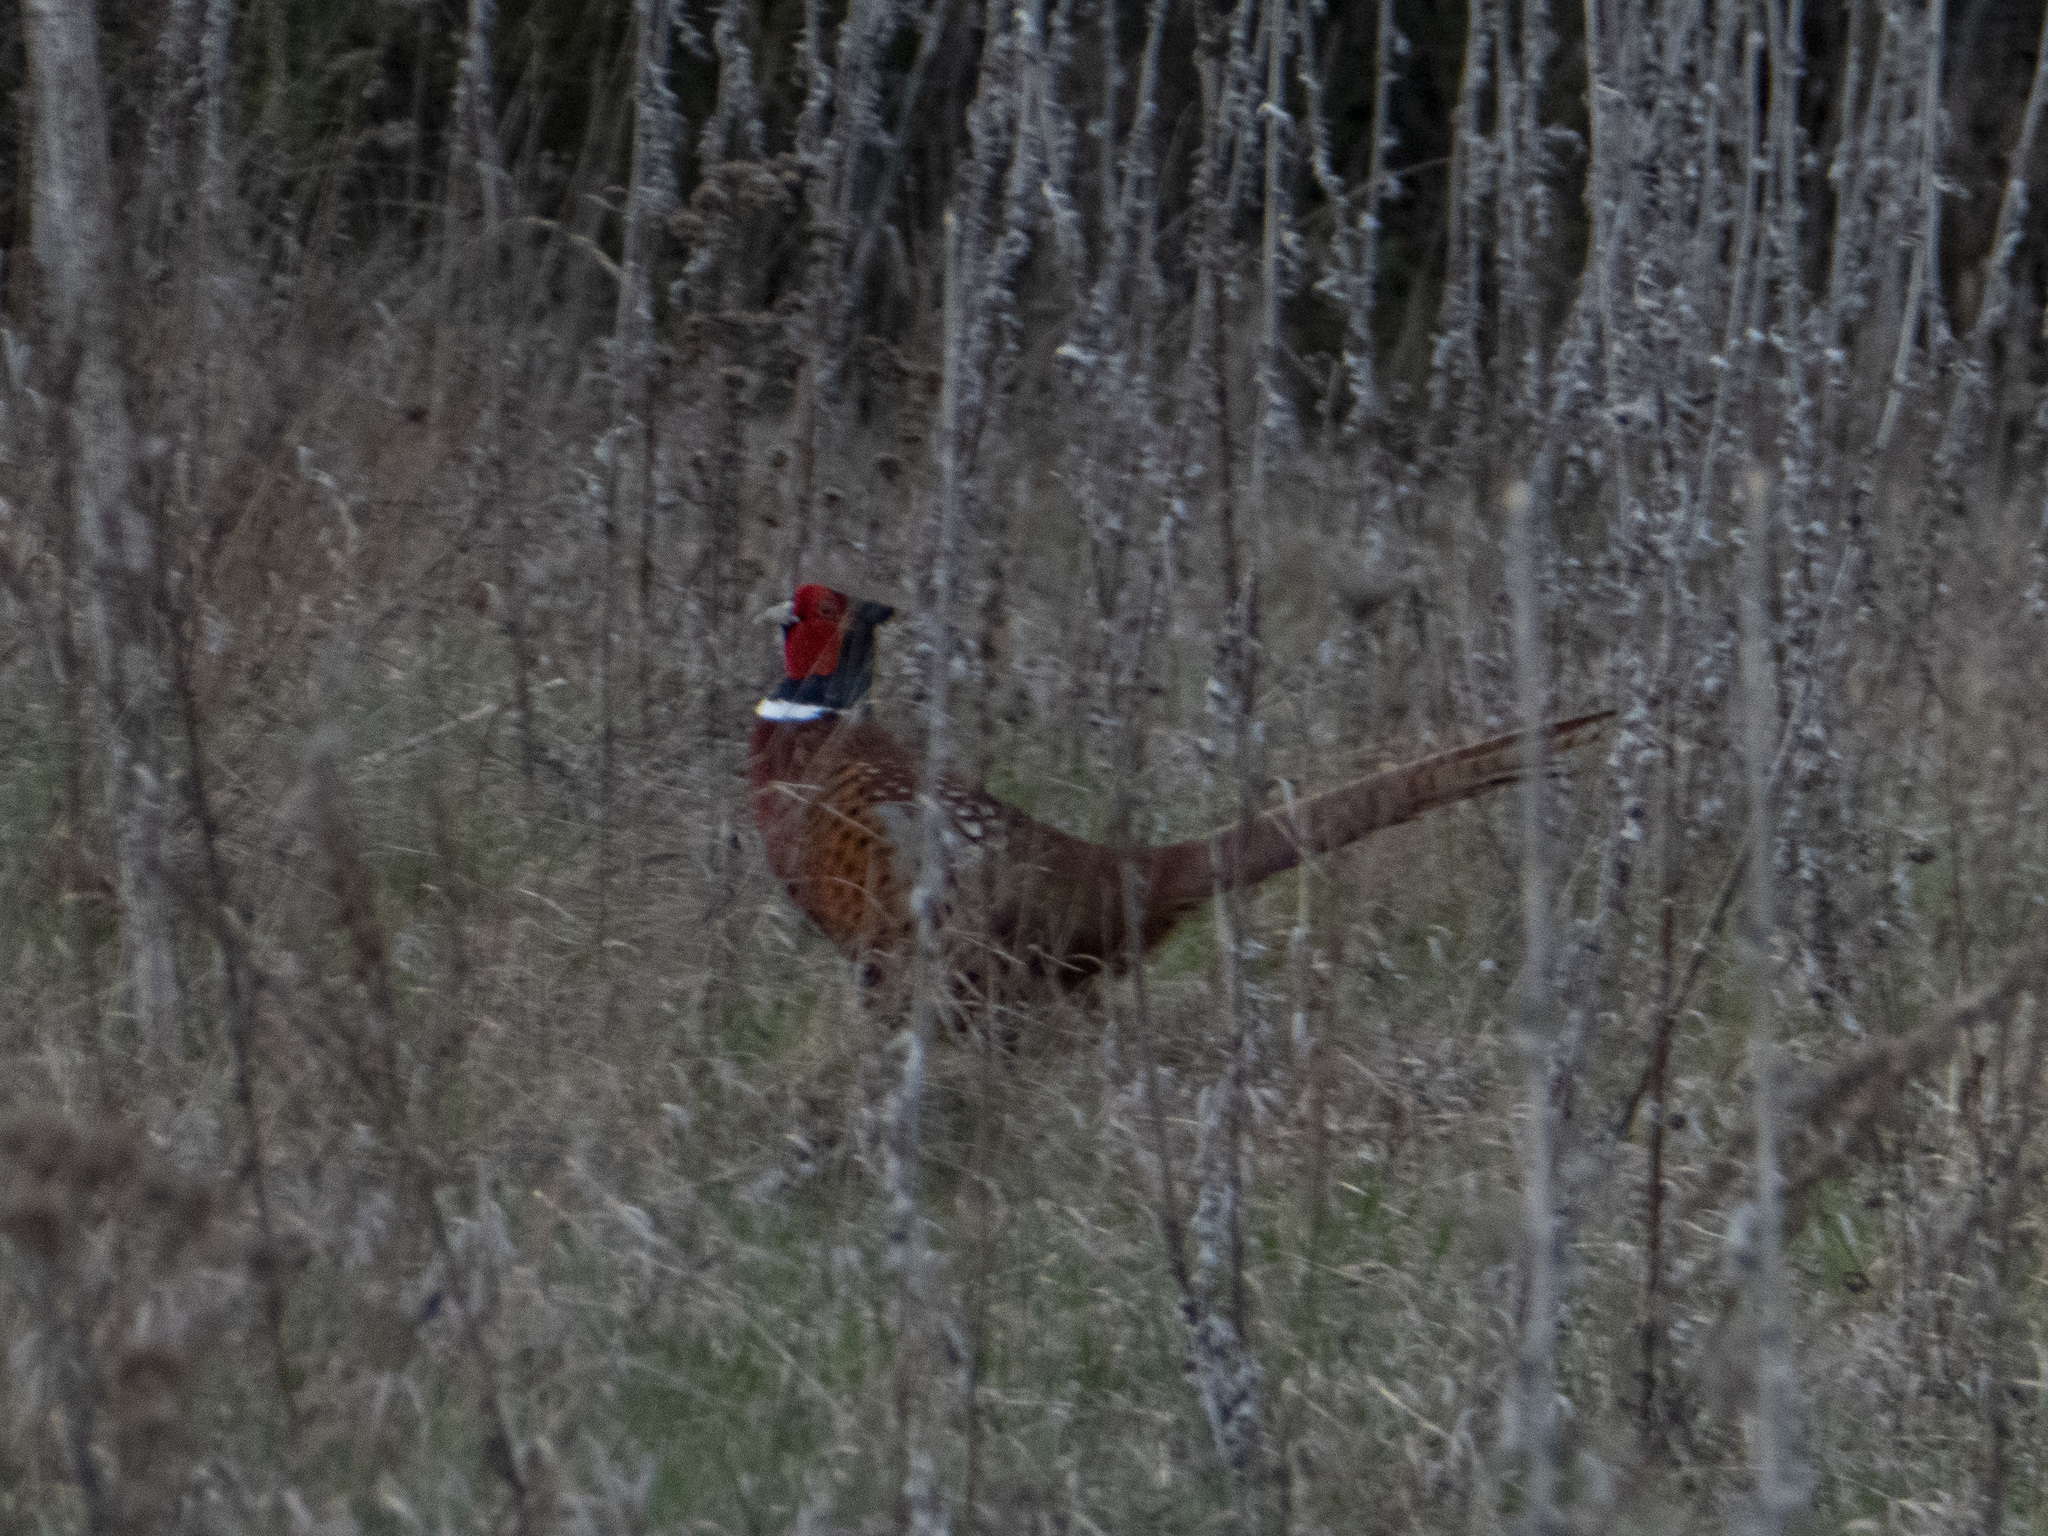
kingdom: Animalia
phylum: Chordata
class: Aves
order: Galliformes
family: Phasianidae
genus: Phasianus
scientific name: Phasianus colchicus
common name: Common pheasant
